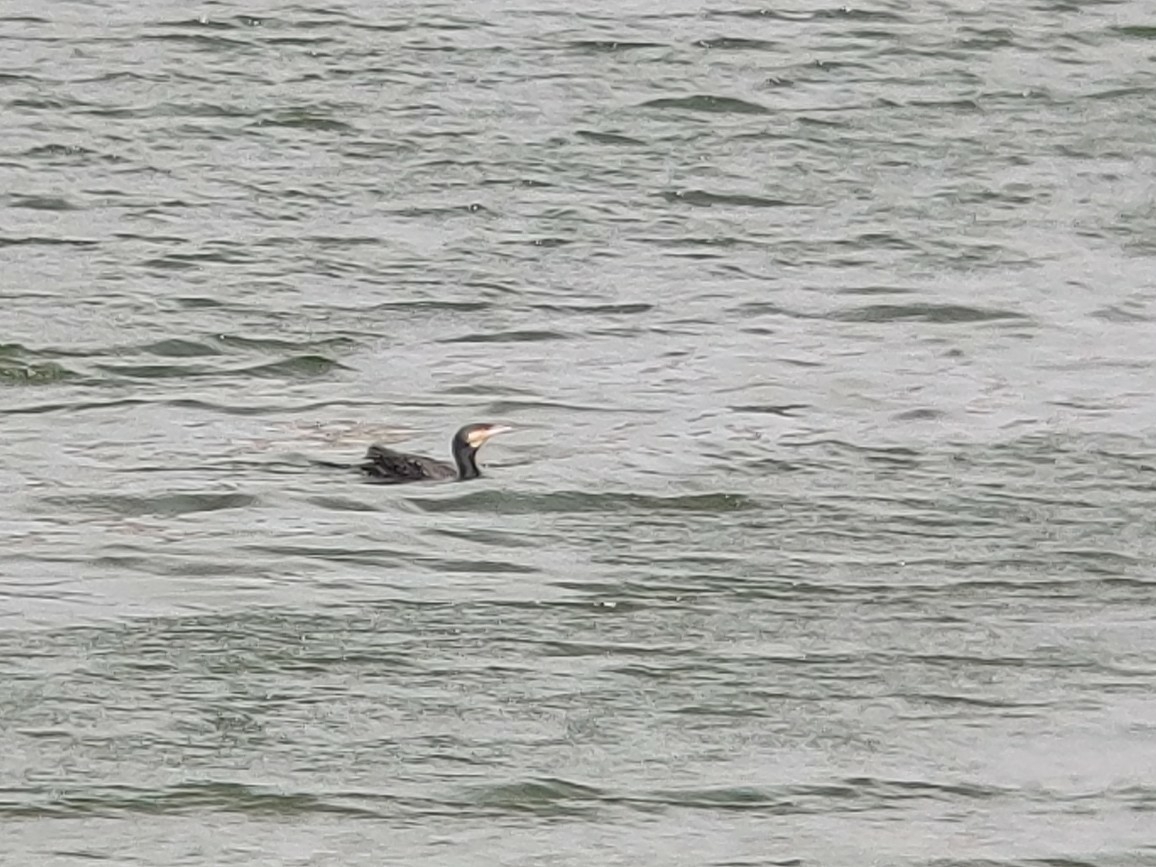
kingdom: Animalia
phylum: Chordata
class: Aves
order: Suliformes
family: Phalacrocoracidae
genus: Phalacrocorax
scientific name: Phalacrocorax carbo
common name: Great cormorant
